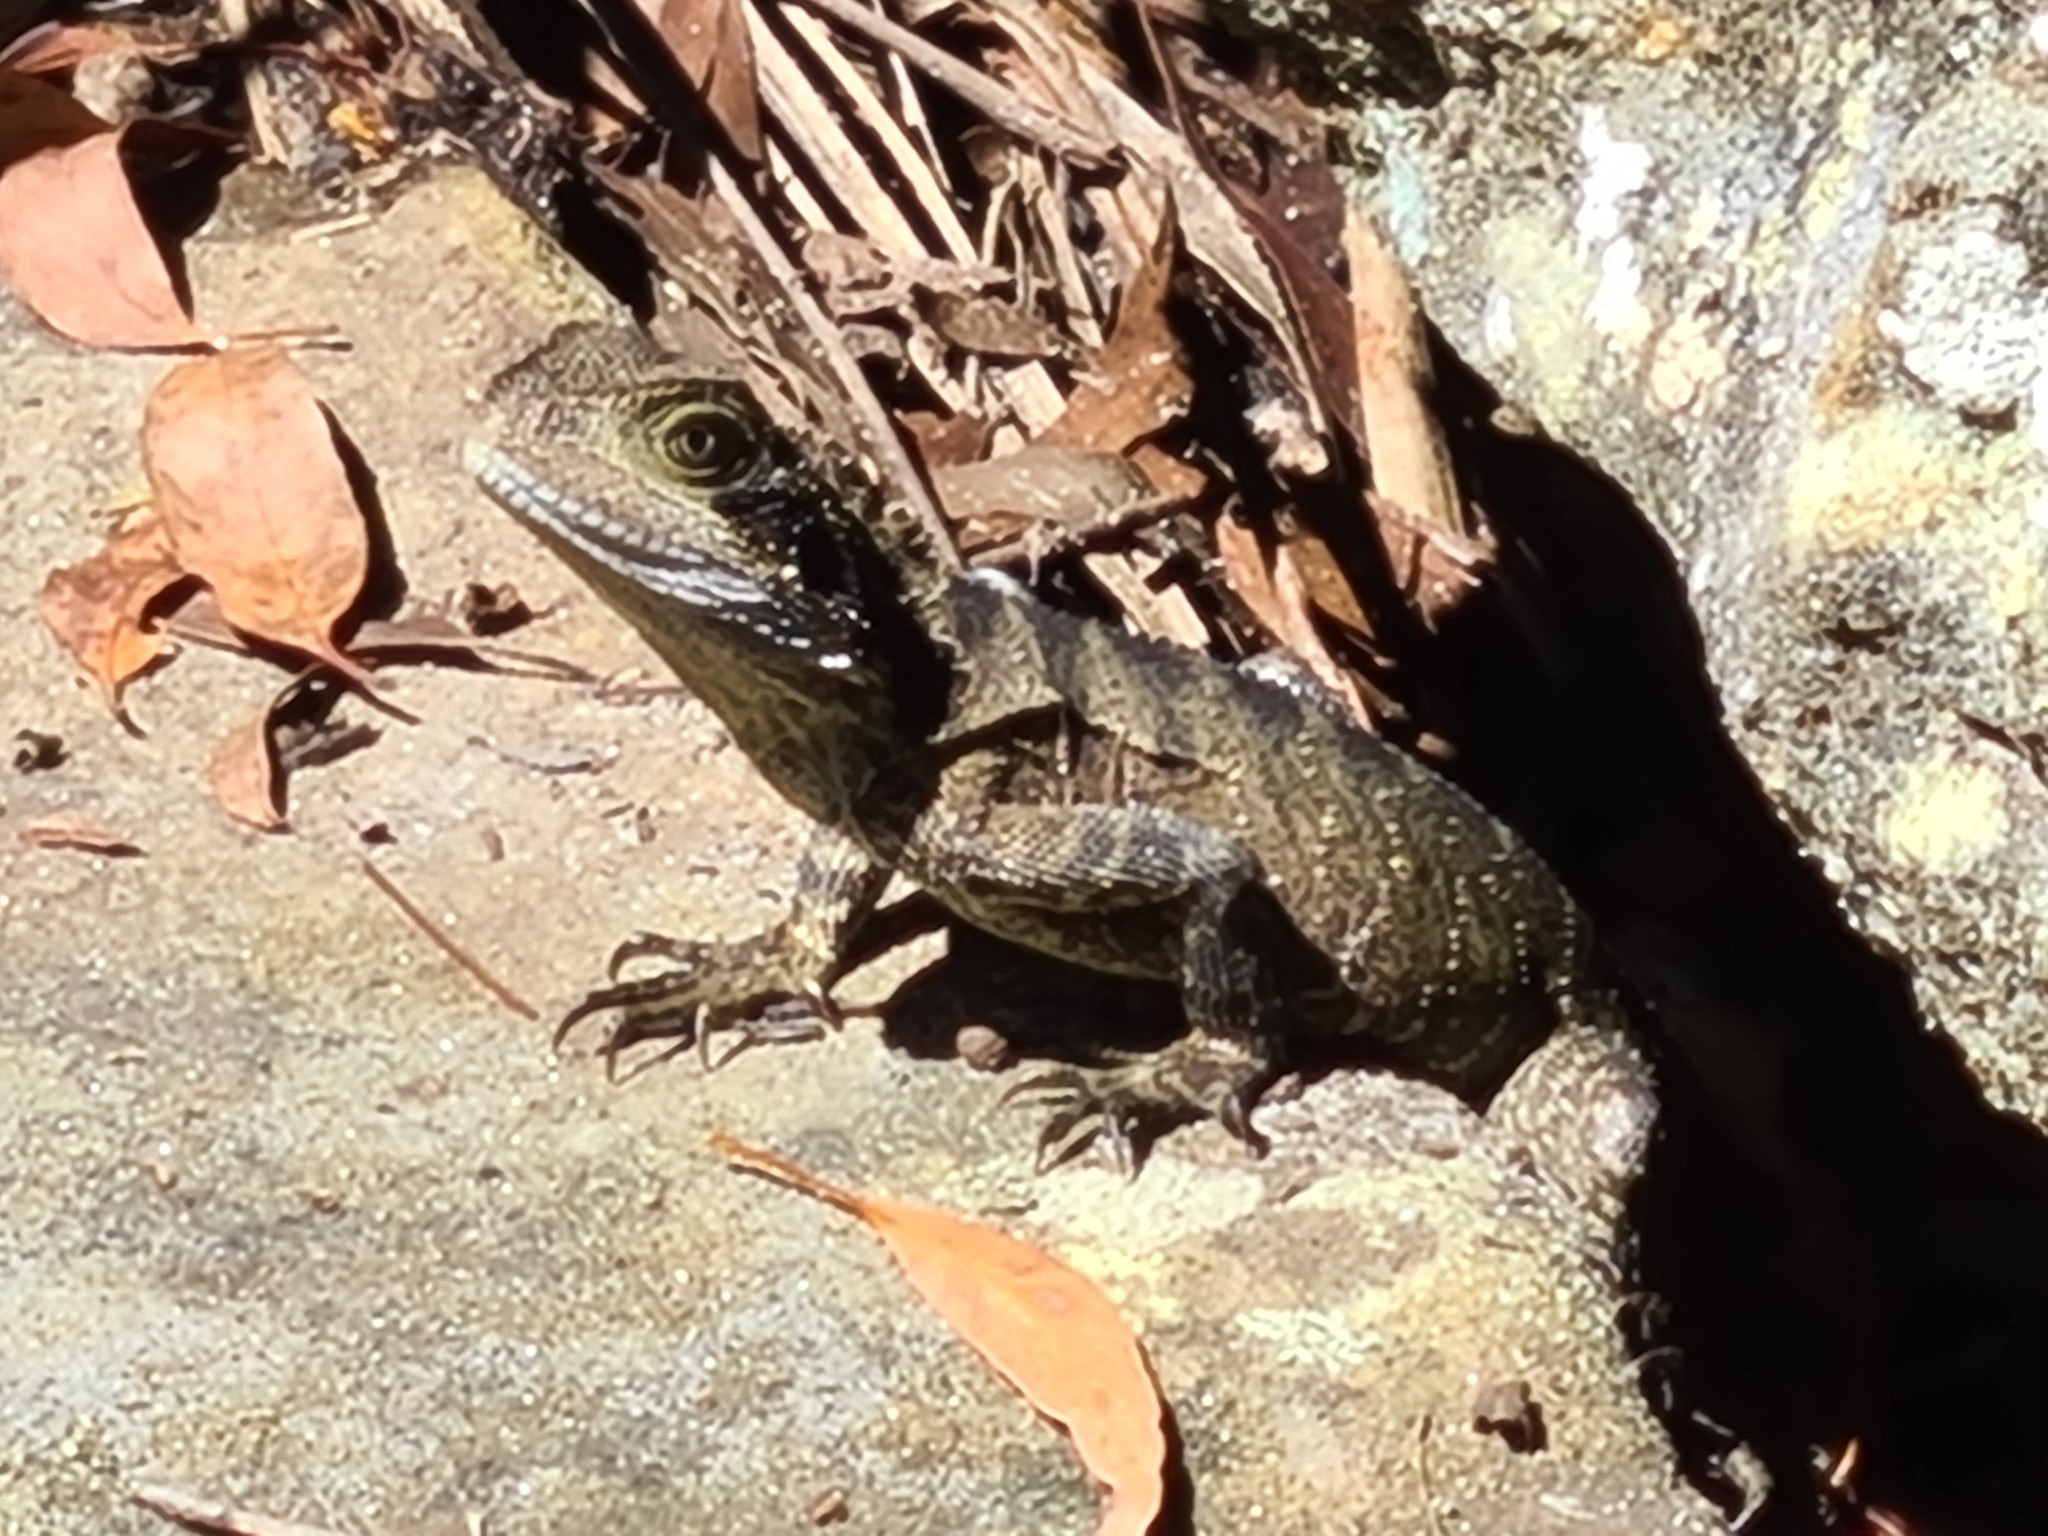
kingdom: Animalia
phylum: Chordata
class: Squamata
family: Agamidae
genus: Intellagama
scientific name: Intellagama lesueurii
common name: Eastern water dragon
